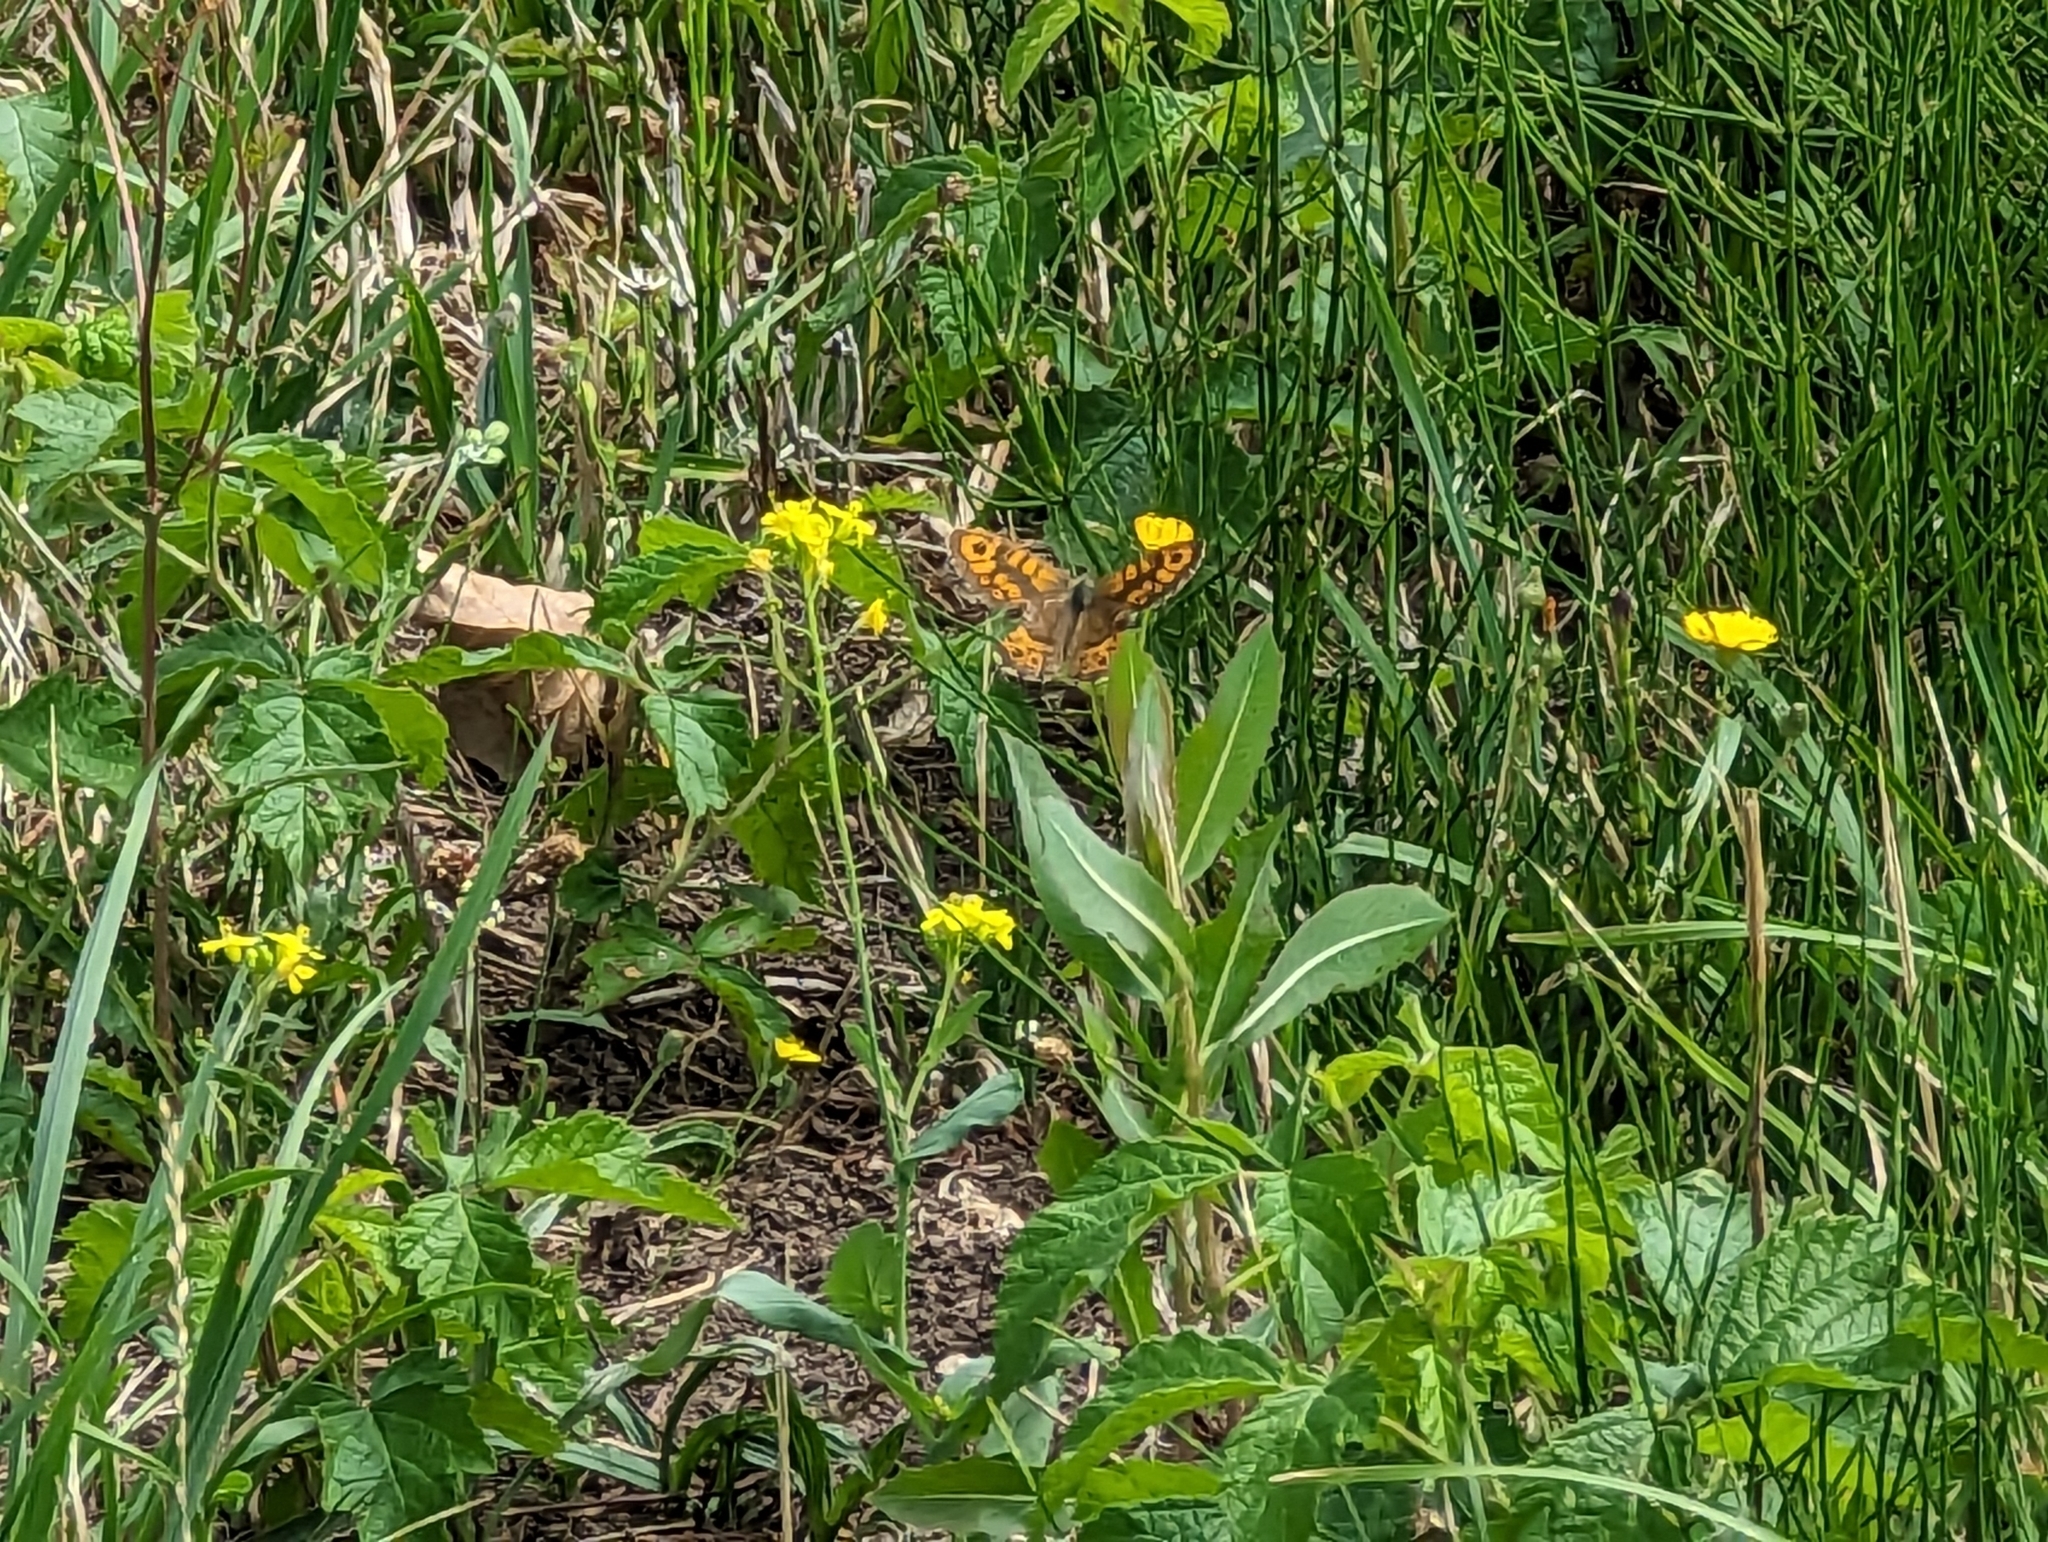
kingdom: Animalia
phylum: Arthropoda
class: Insecta
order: Lepidoptera
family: Nymphalidae
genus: Pararge
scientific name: Pararge Lasiommata megera
